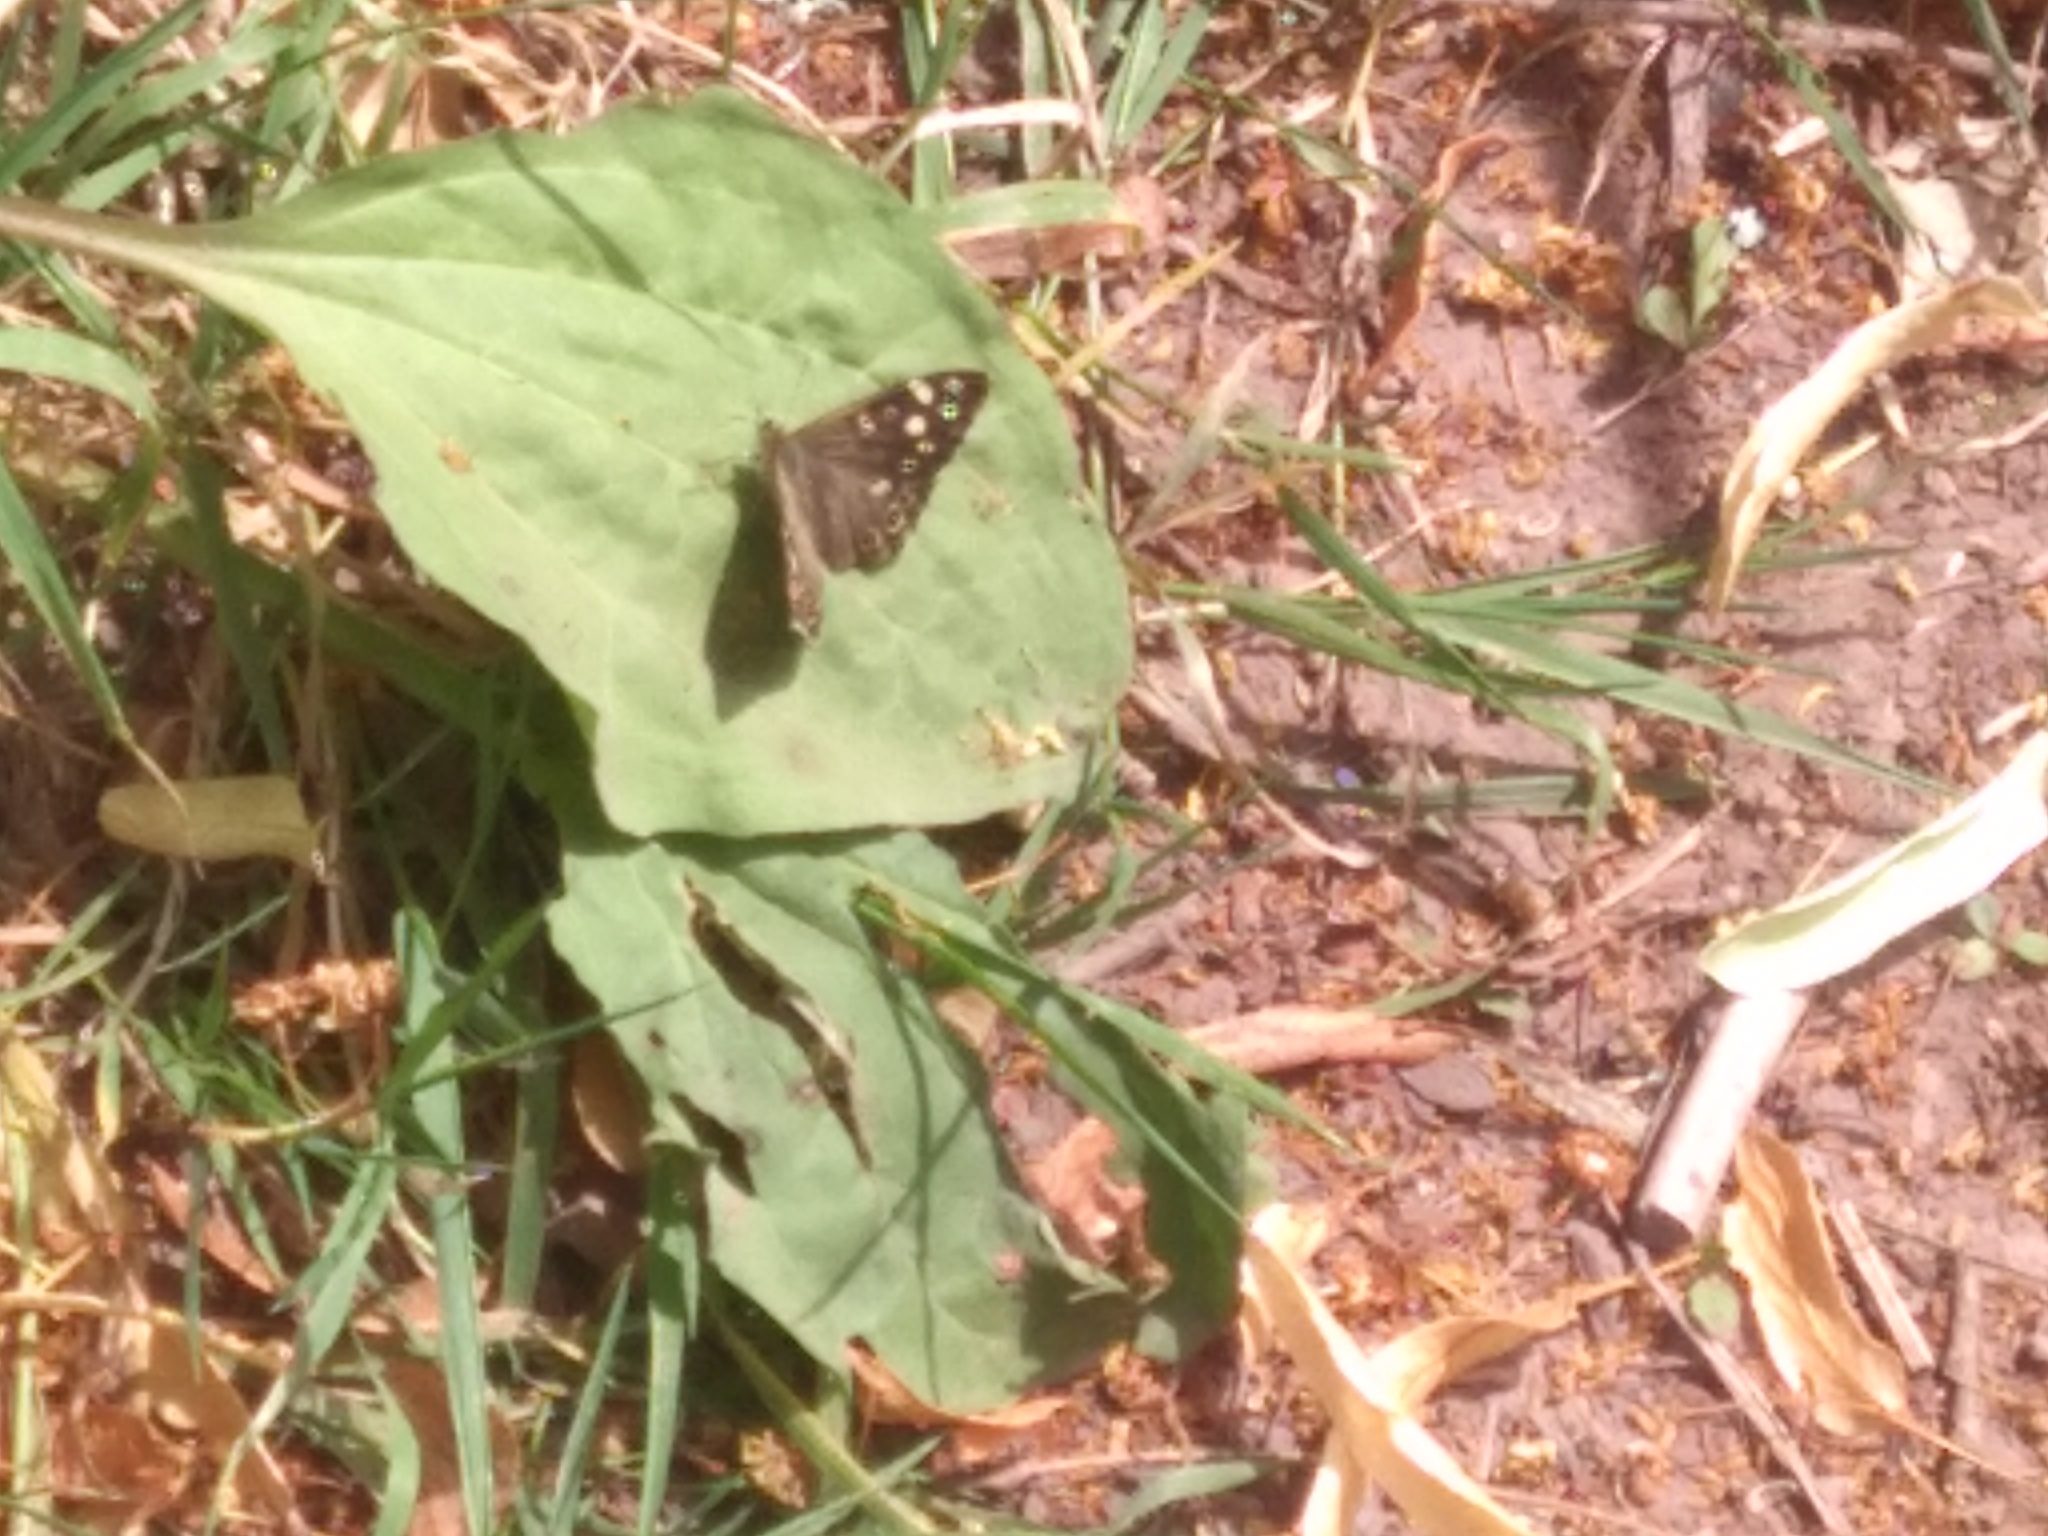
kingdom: Animalia
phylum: Arthropoda
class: Insecta
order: Lepidoptera
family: Nymphalidae
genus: Pararge
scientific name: Pararge aegeria
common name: Speckled wood
